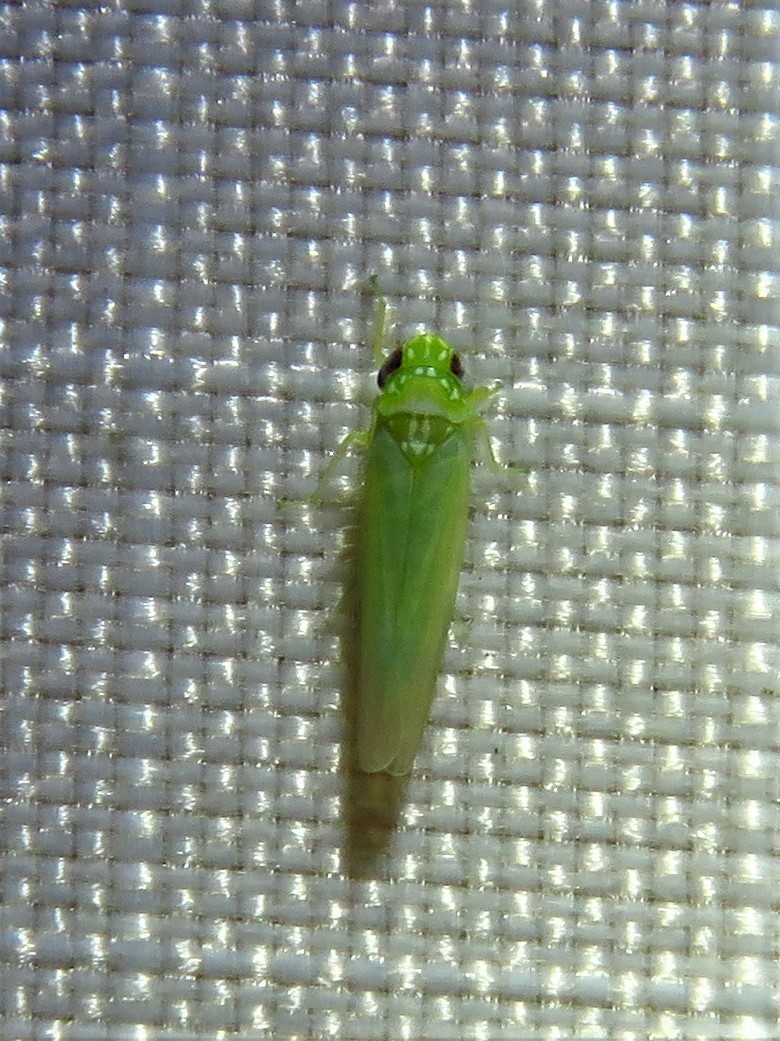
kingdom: Animalia
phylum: Arthropoda
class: Insecta
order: Hemiptera
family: Cicadellidae
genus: Empoasca
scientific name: Empoasca fabae
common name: Potato leafhopper
